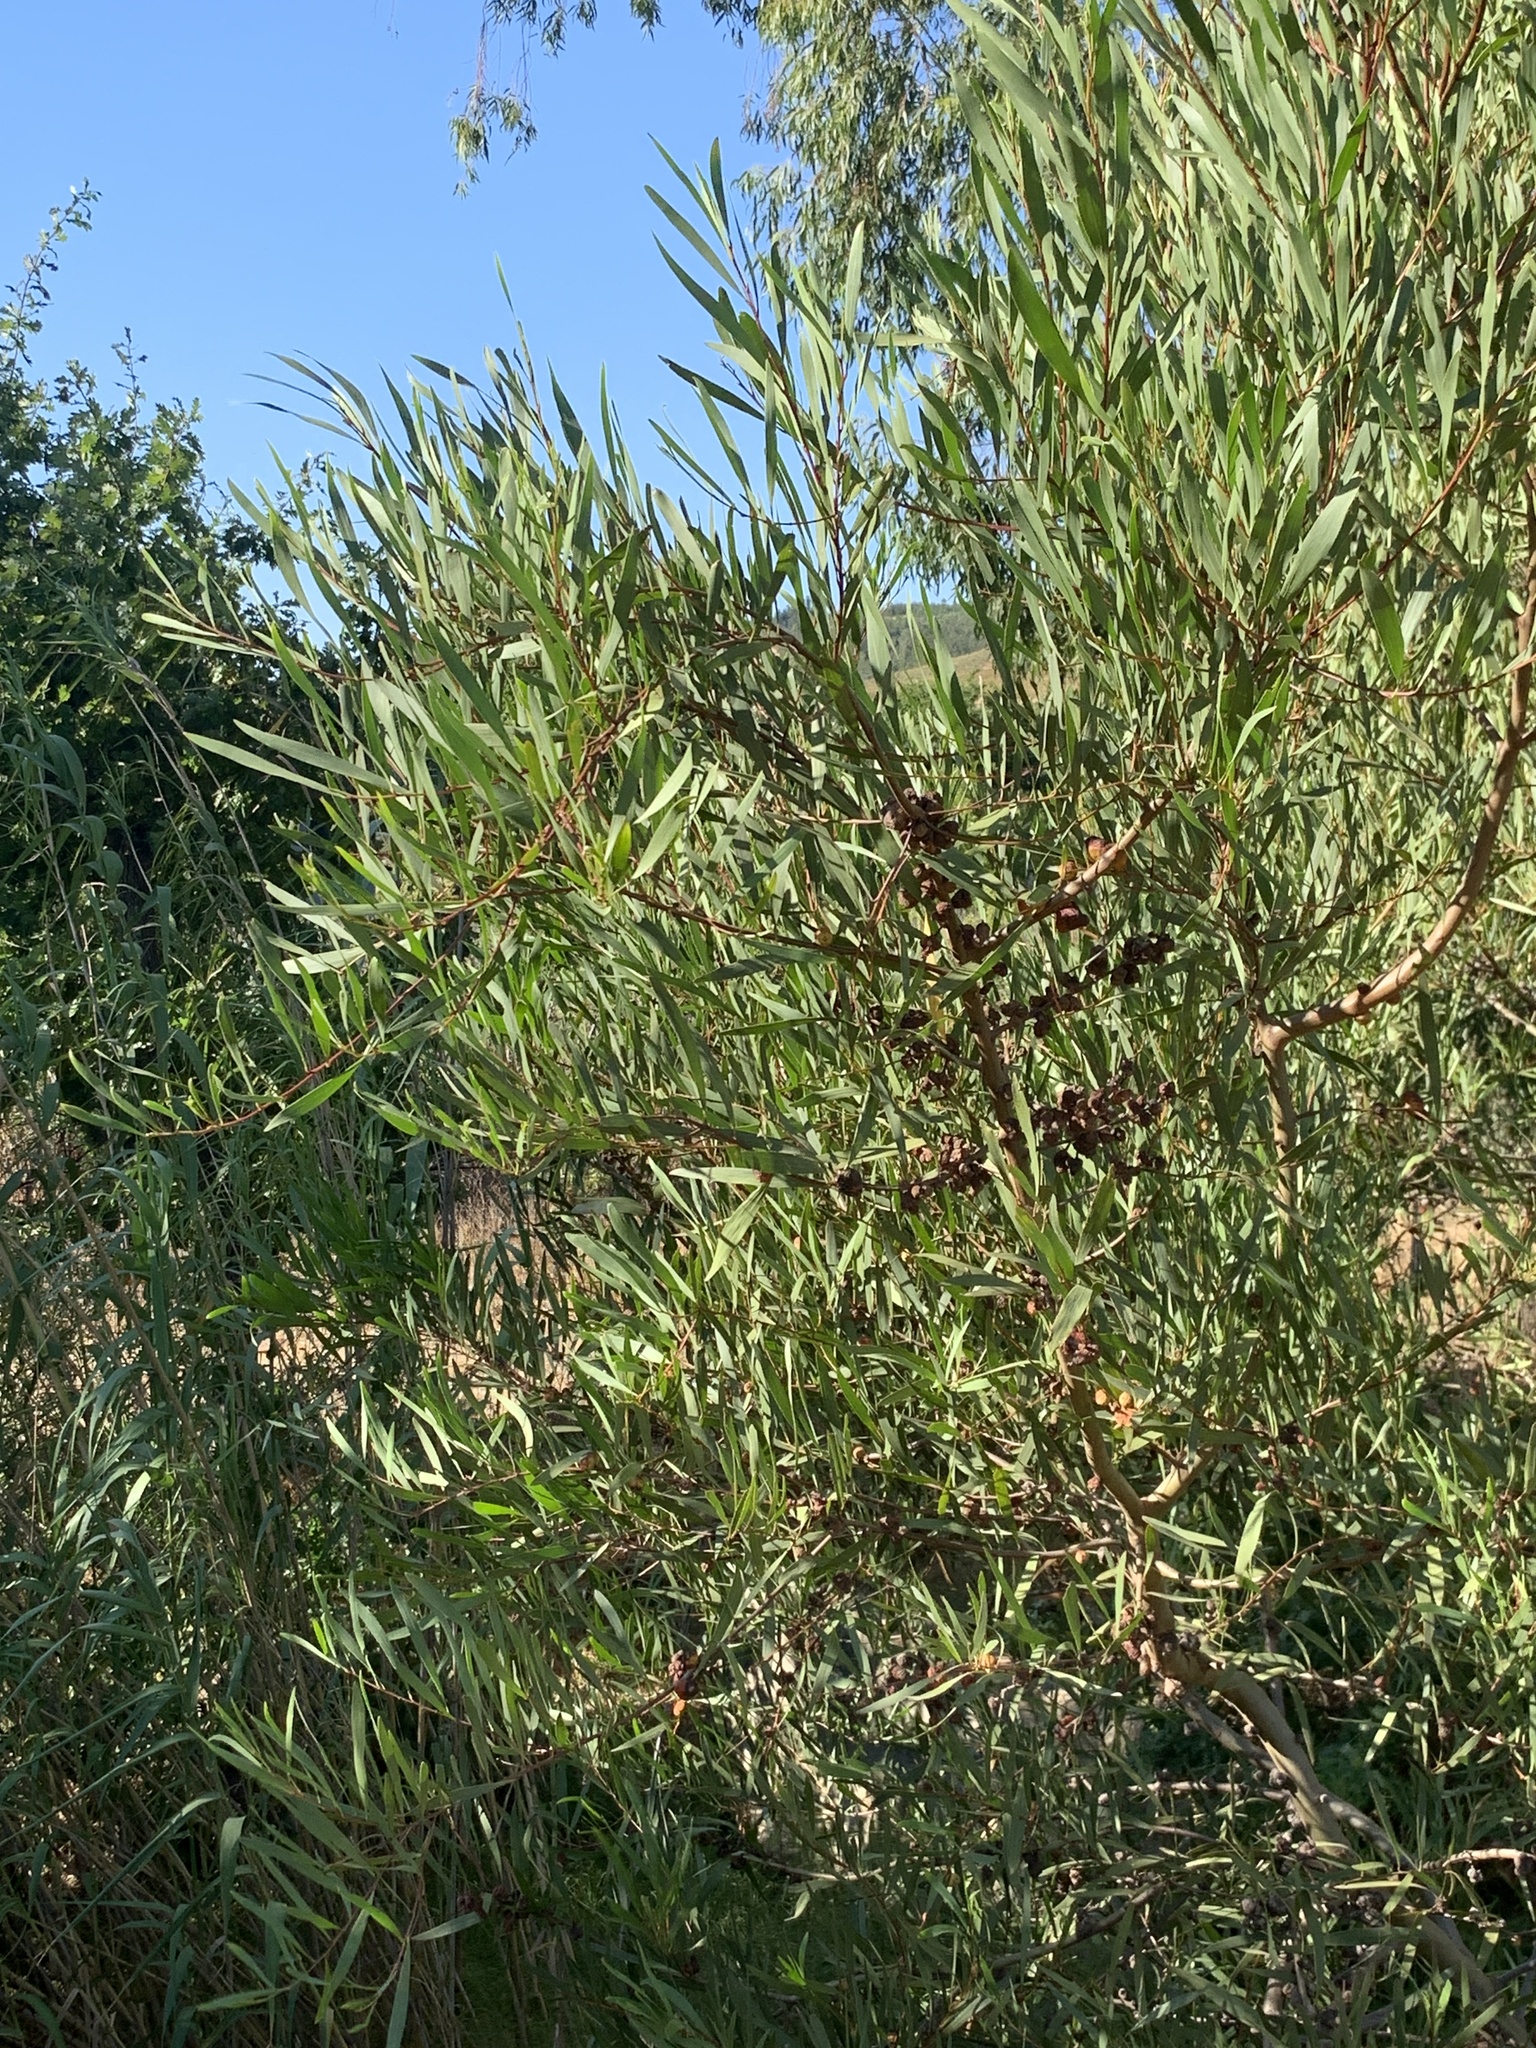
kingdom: Plantae
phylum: Tracheophyta
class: Magnoliopsida
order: Fabales
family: Fabaceae
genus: Acacia
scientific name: Acacia longifolia
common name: Sydney golden wattle
